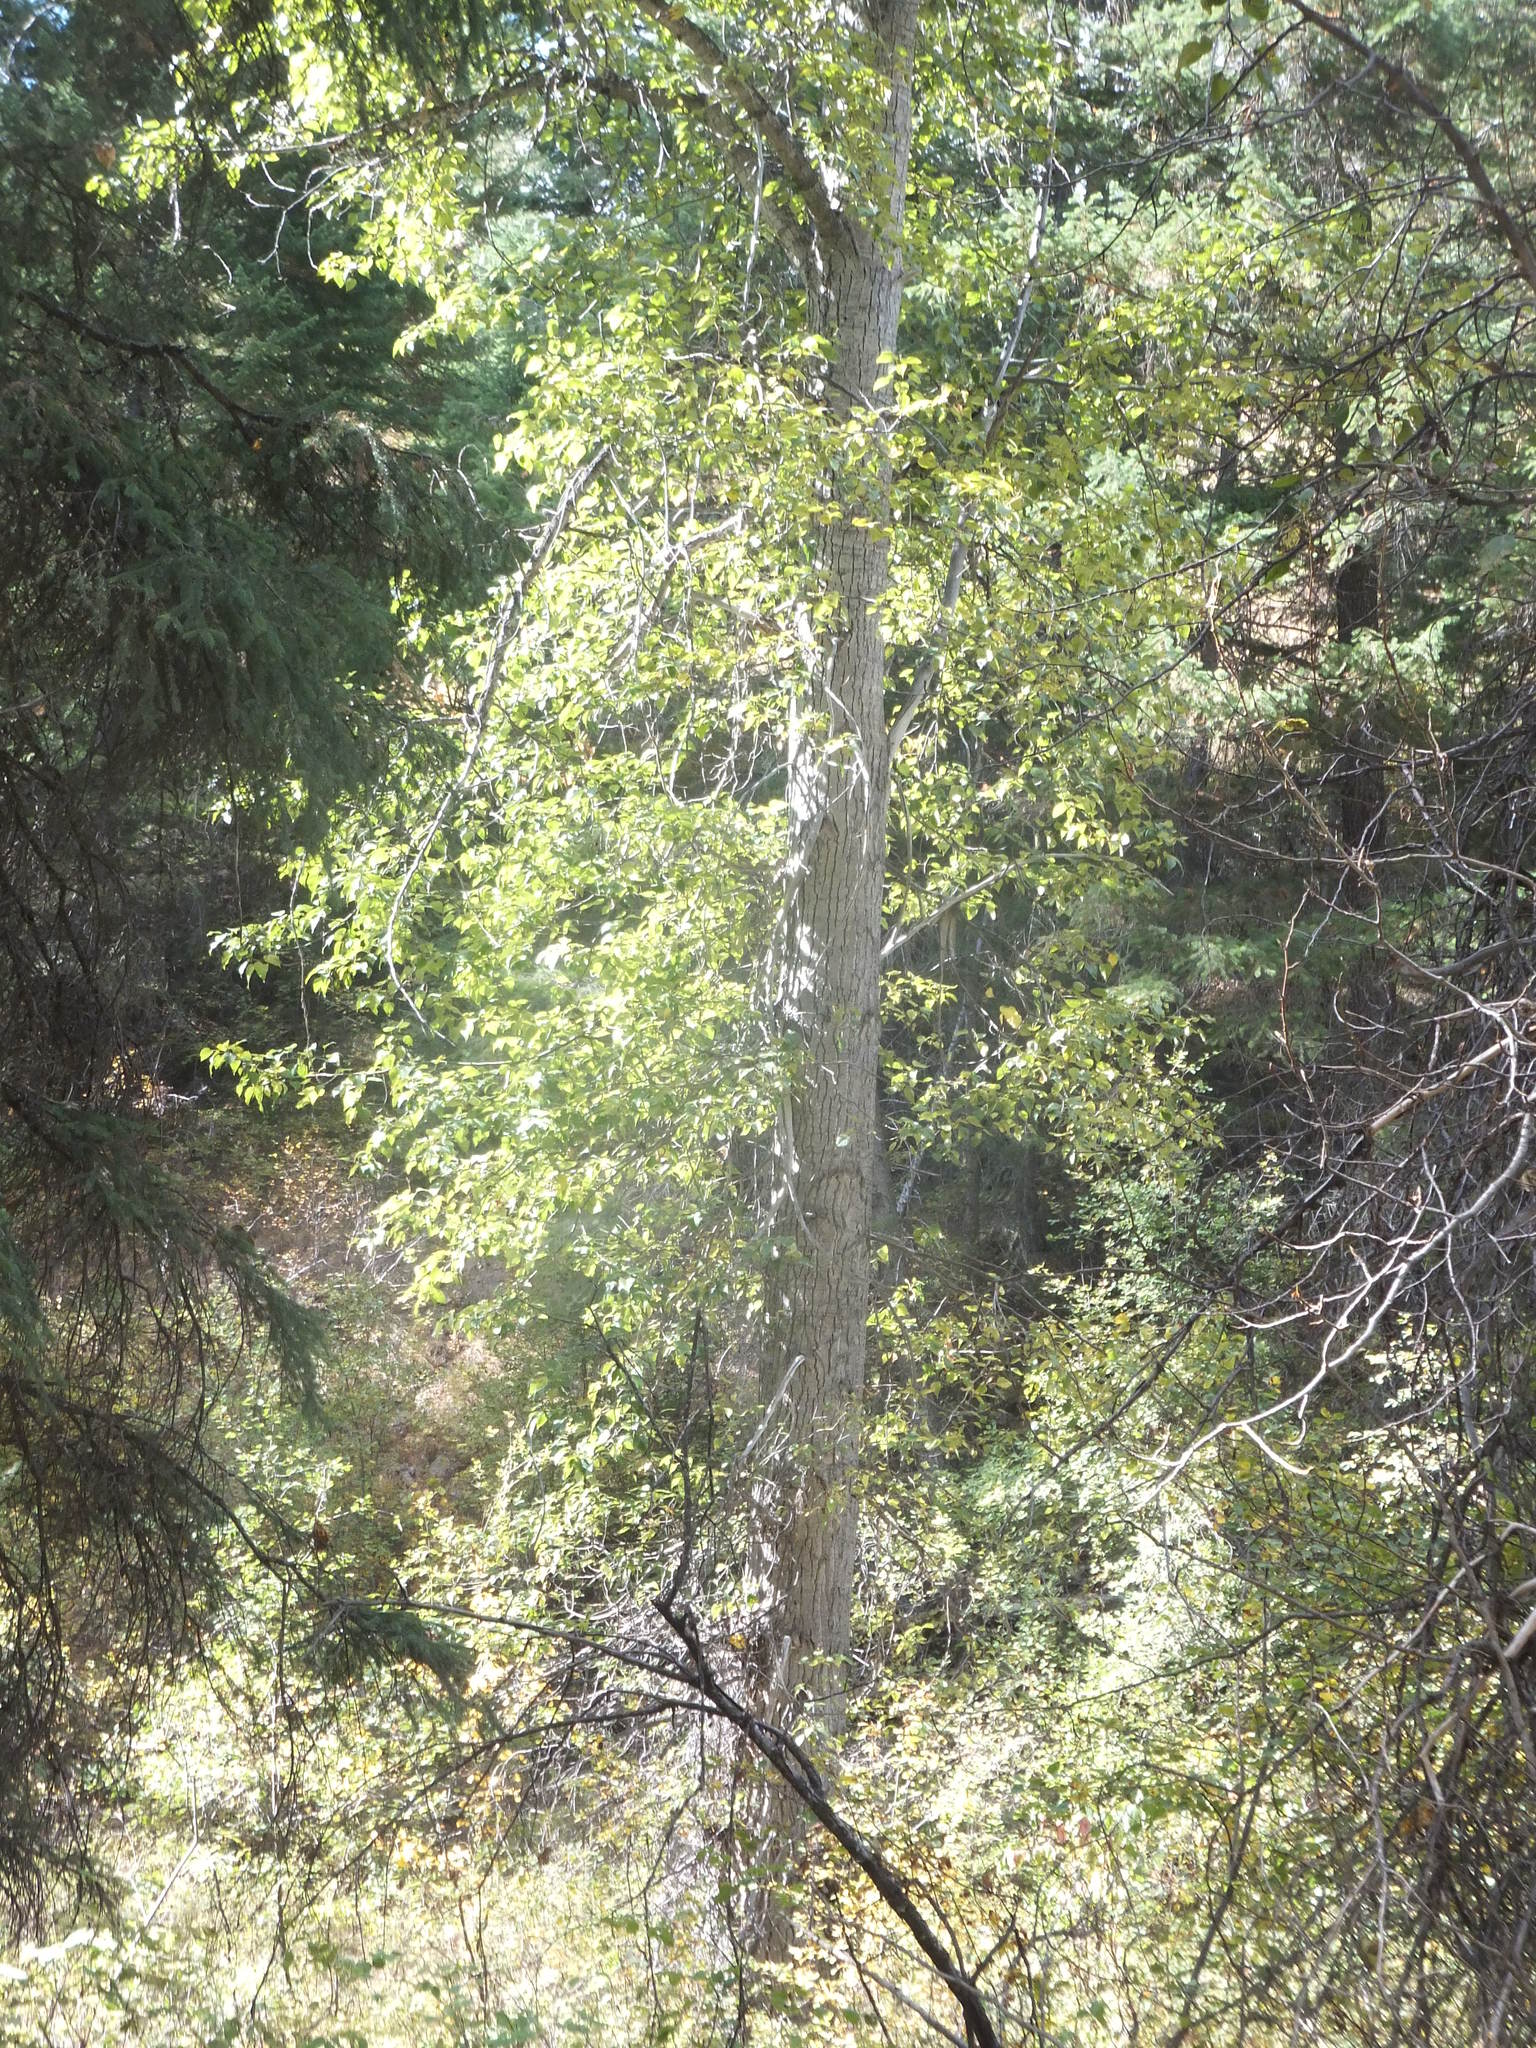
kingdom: Plantae
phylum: Tracheophyta
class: Magnoliopsida
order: Malpighiales
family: Salicaceae
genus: Populus
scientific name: Populus trichocarpa
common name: Black cottonwood
